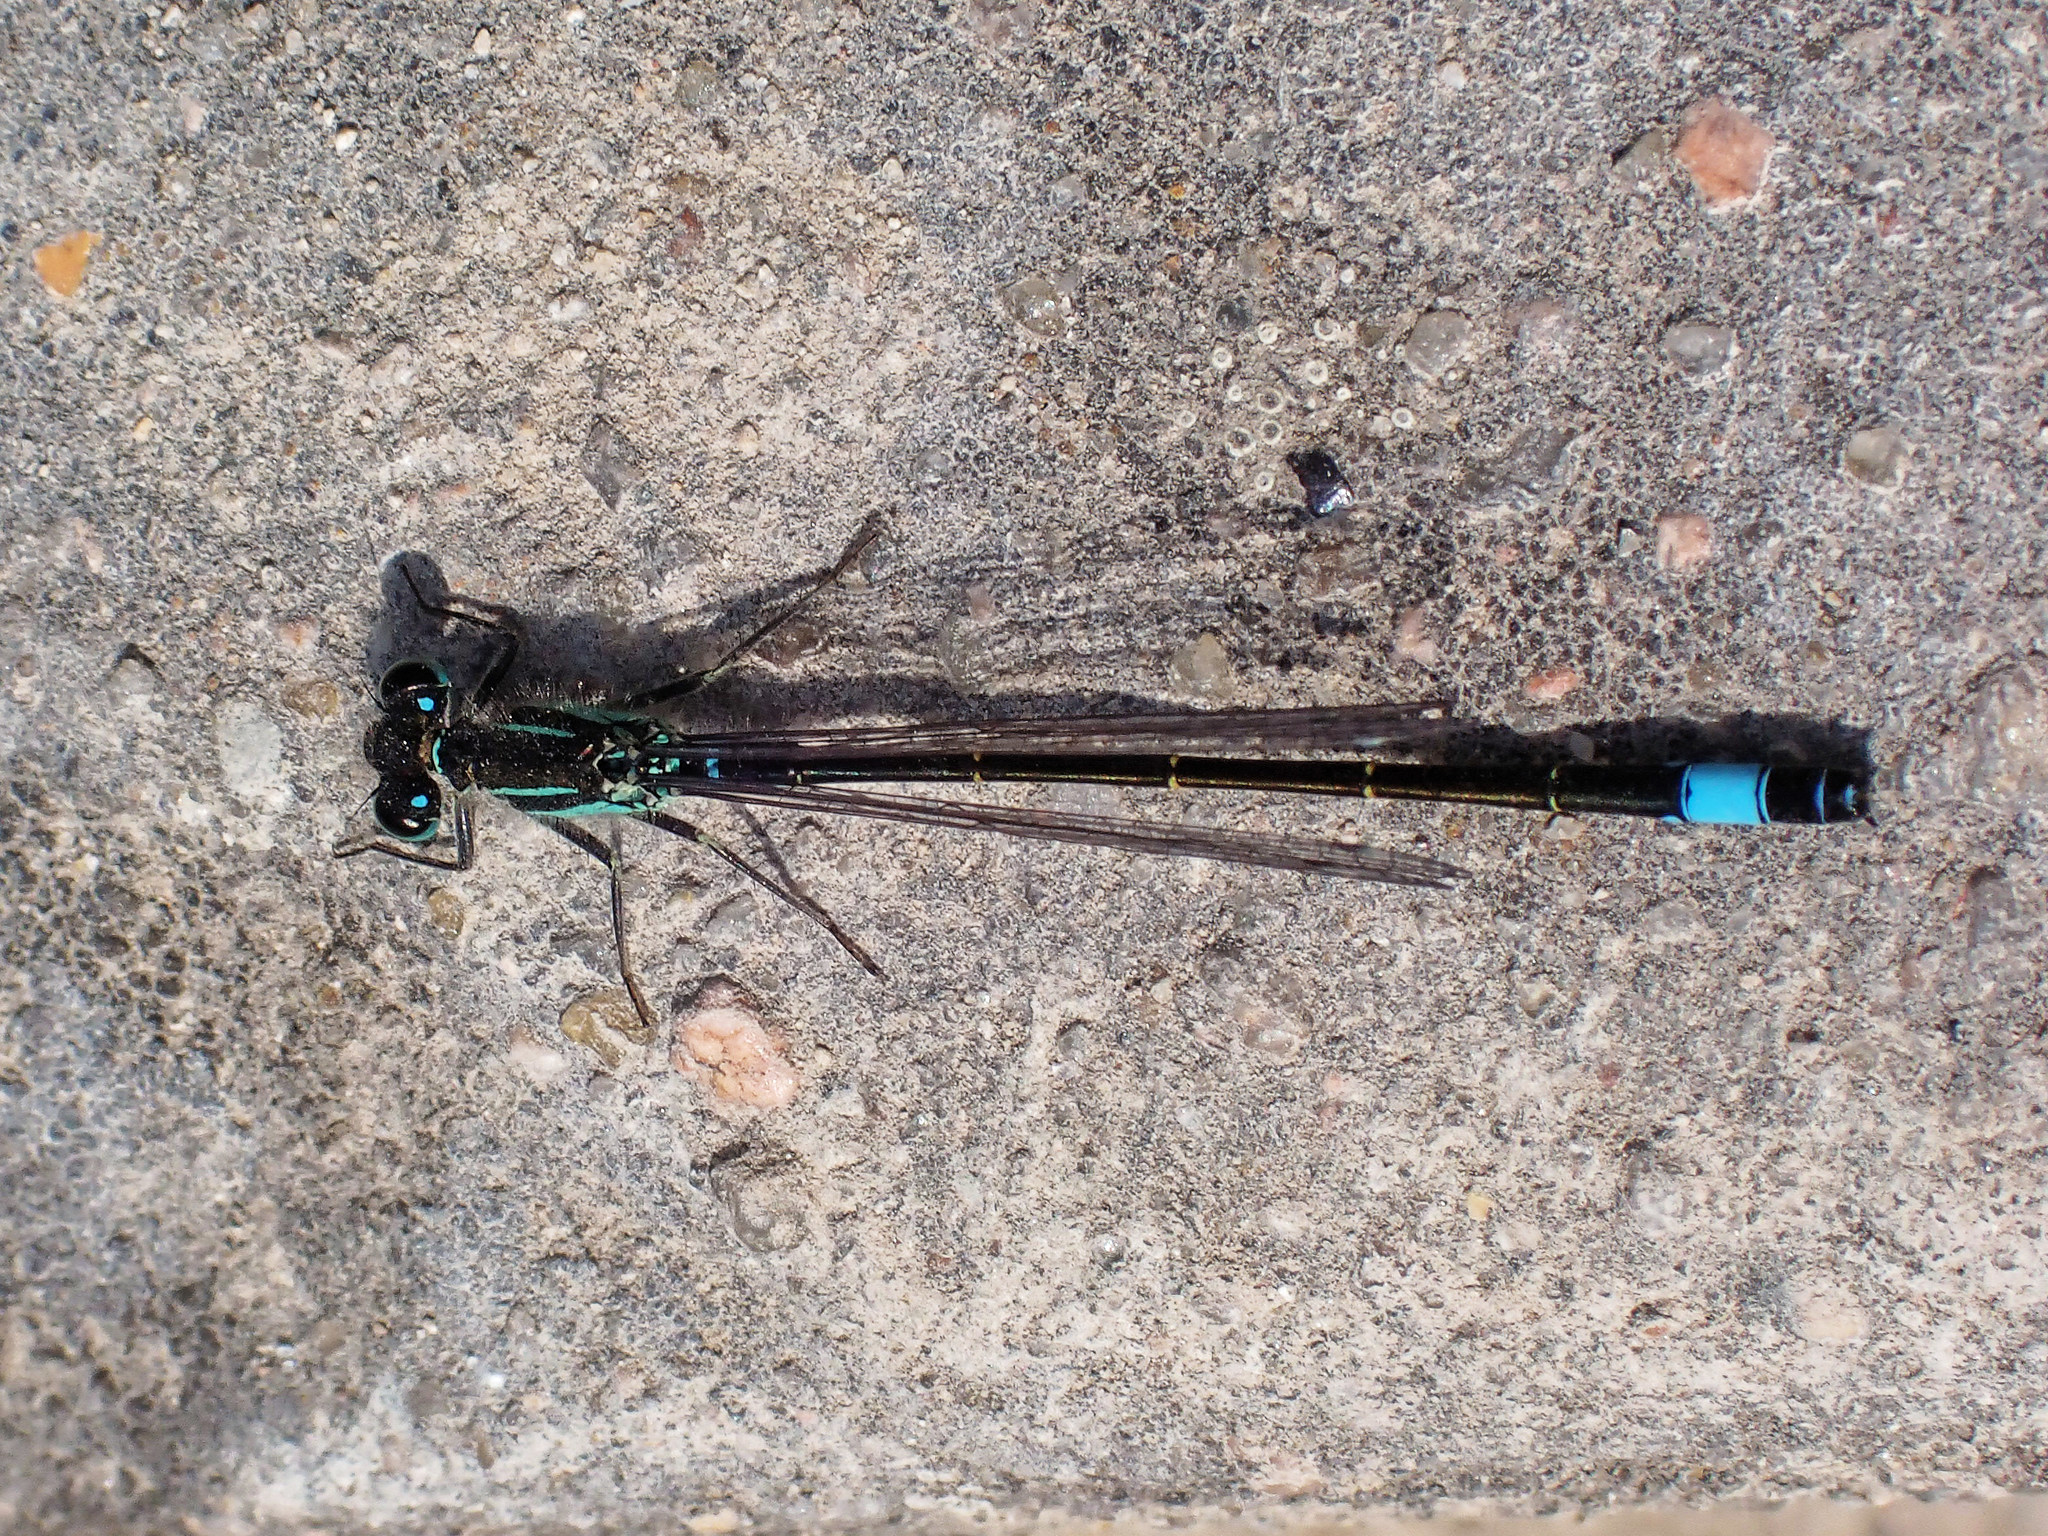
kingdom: Animalia
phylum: Arthropoda
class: Insecta
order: Odonata
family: Coenagrionidae
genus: Ischnura
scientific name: Ischnura elegans
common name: Blue-tailed damselfly
